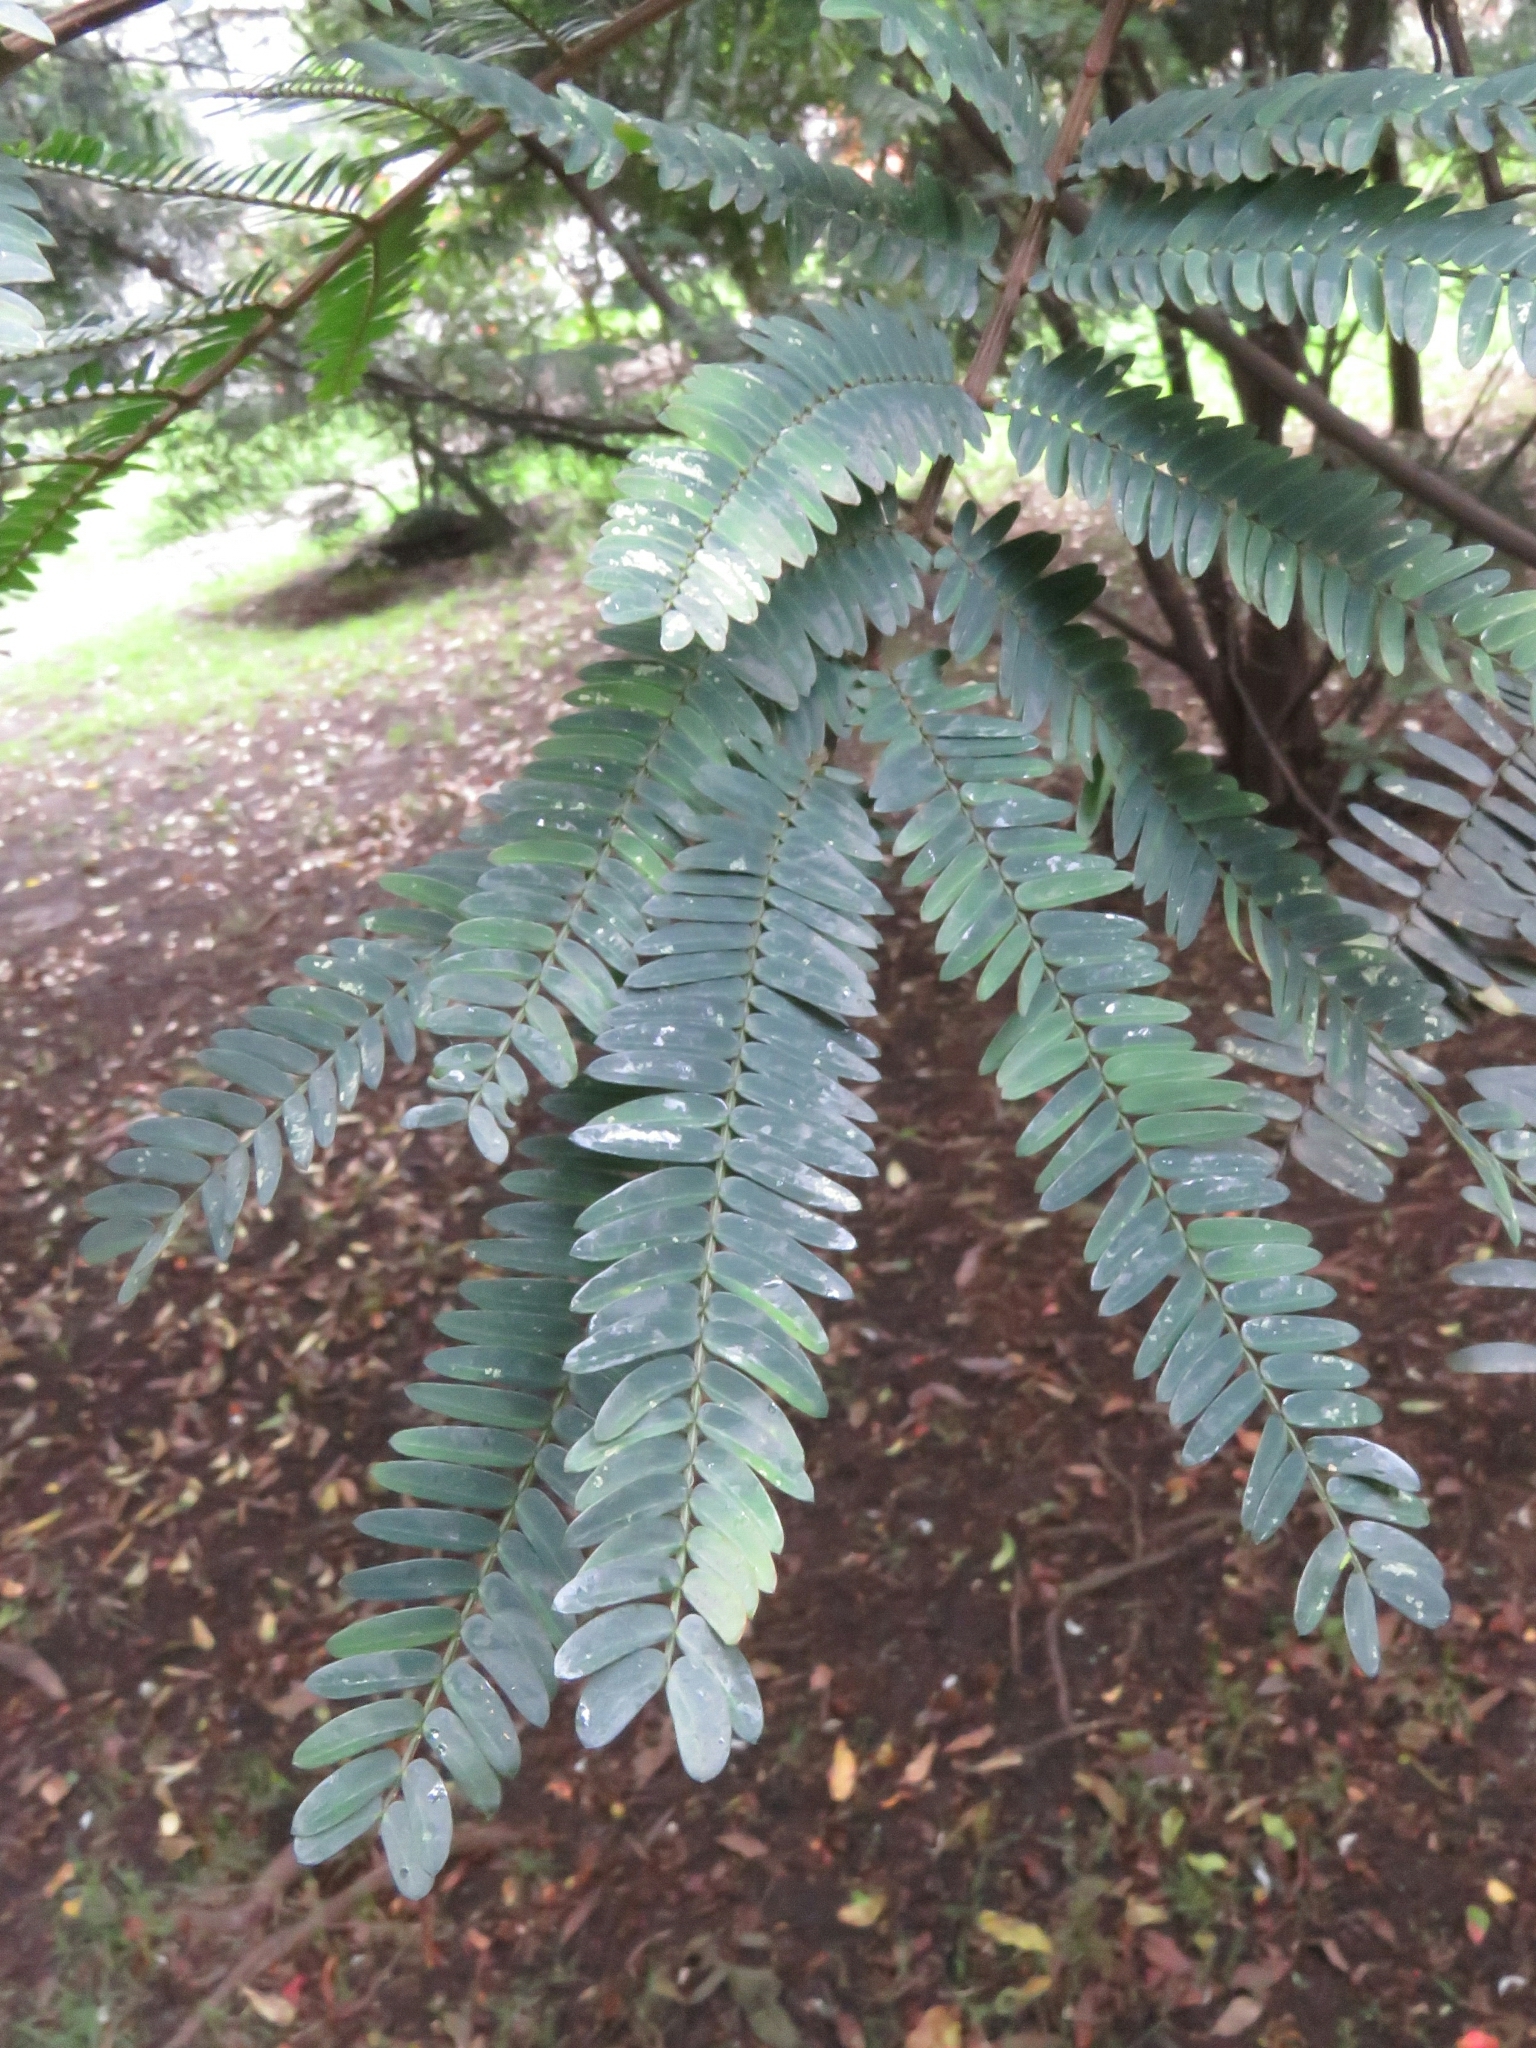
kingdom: Plantae
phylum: Tracheophyta
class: Magnoliopsida
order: Fabales
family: Fabaceae
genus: Paraserianthes
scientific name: Paraserianthes lophantha
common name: Plume albizia
